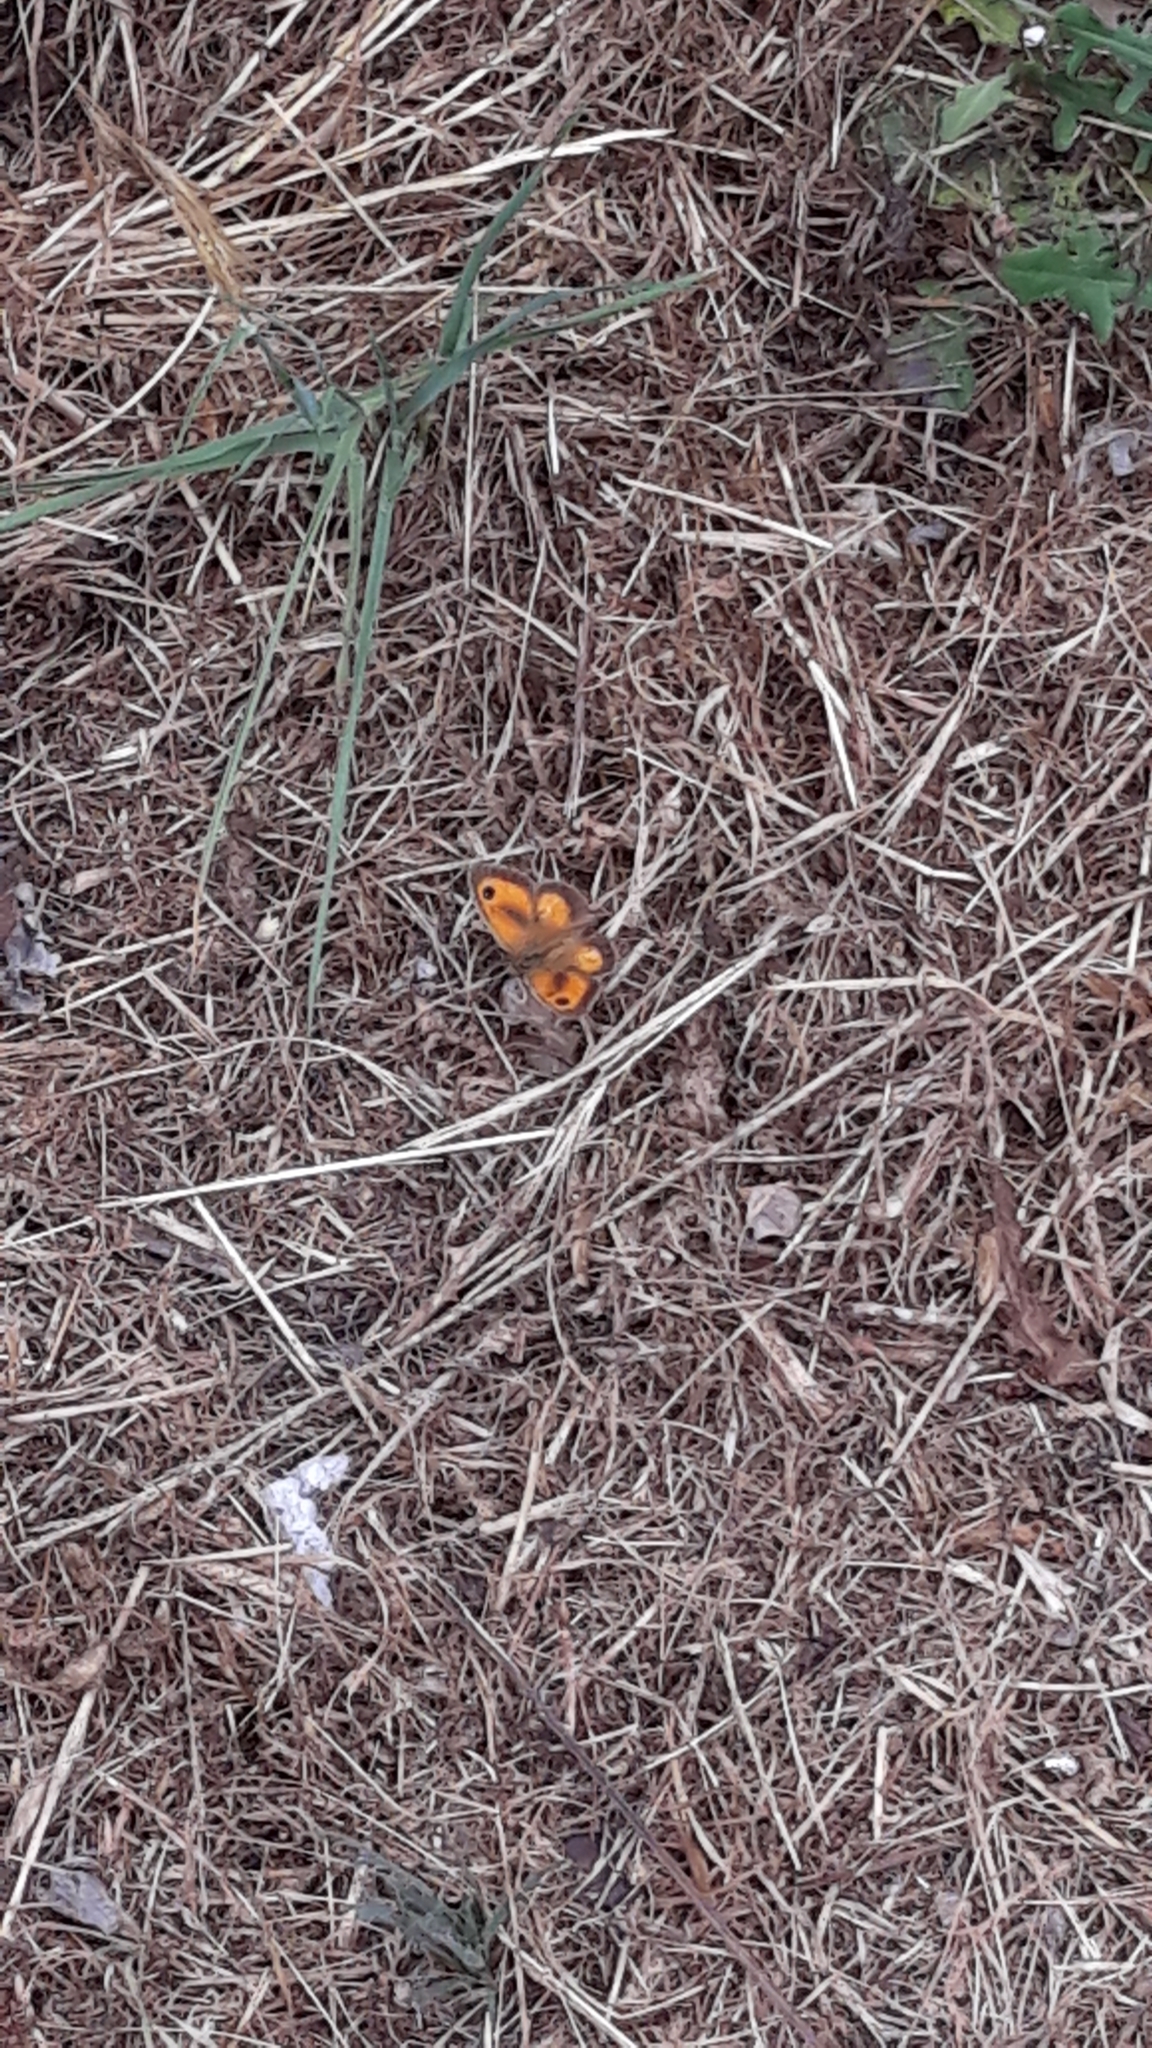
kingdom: Animalia
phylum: Arthropoda
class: Insecta
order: Lepidoptera
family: Nymphalidae
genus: Pyronia
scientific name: Pyronia tithonus
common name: Gatekeeper
